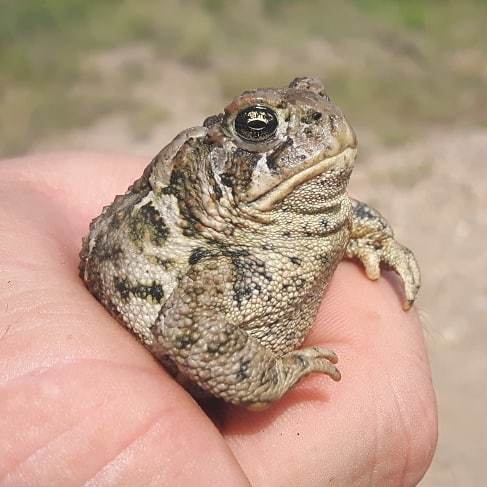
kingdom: Animalia
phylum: Chordata
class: Amphibia
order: Anura
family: Bufonidae
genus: Anaxyrus
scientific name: Anaxyrus hemiophrys
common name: Canadian toad
